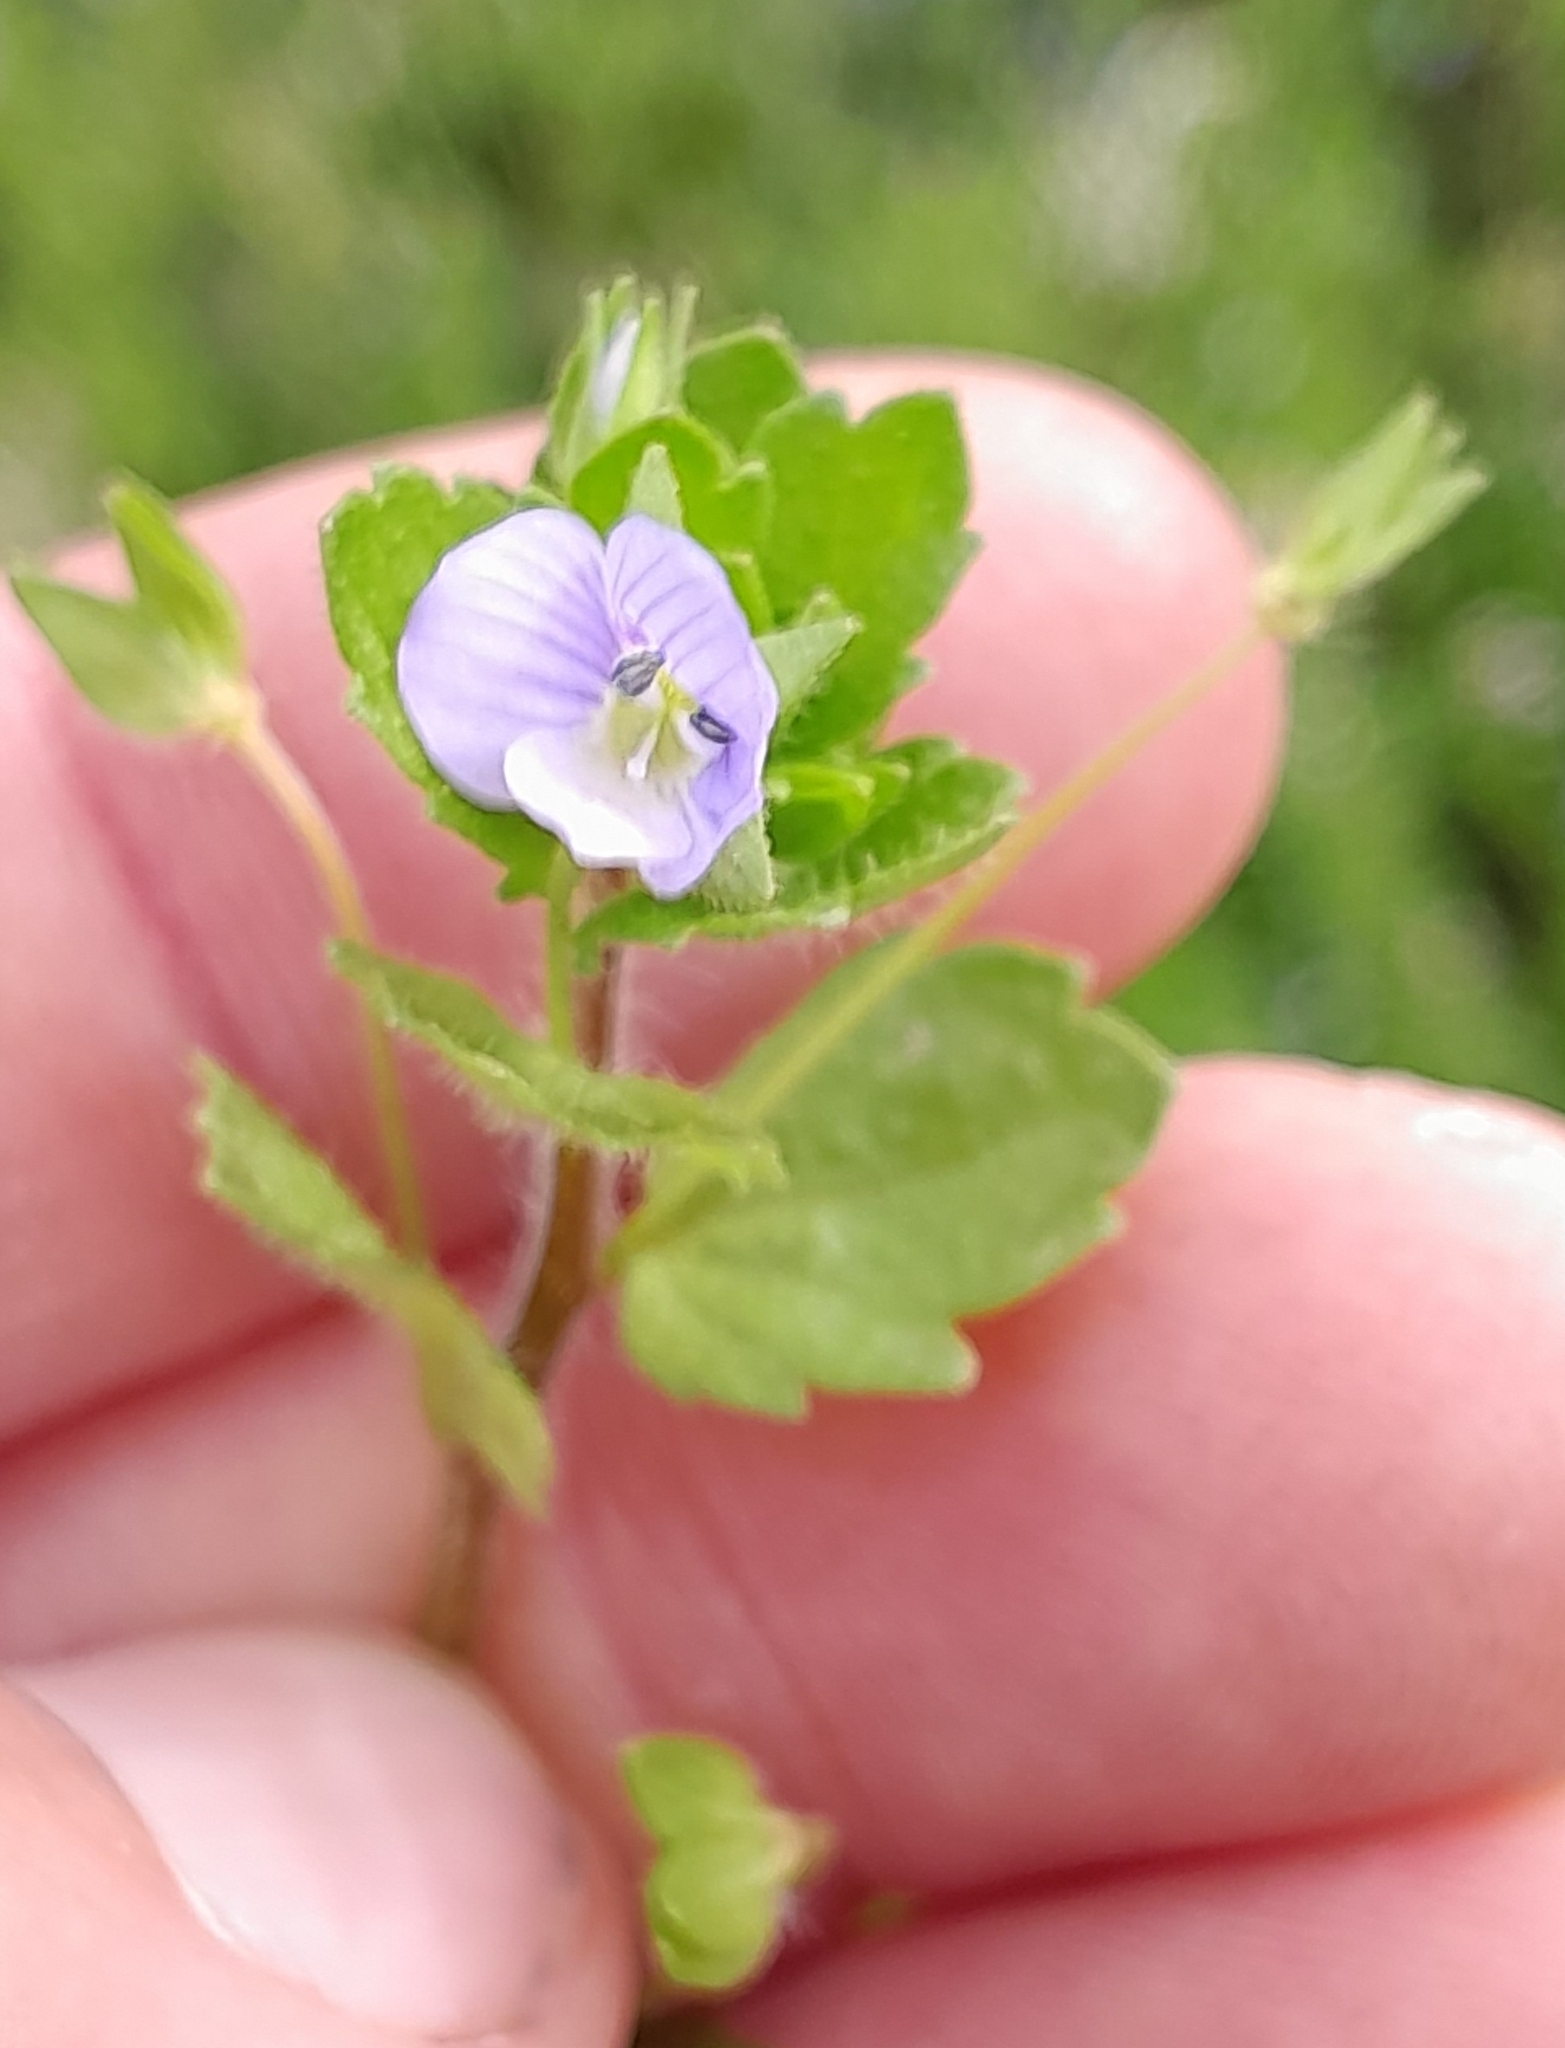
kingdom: Plantae
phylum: Tracheophyta
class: Magnoliopsida
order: Lamiales
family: Plantaginaceae
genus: Veronica
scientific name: Veronica persica
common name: Common field-speedwell
